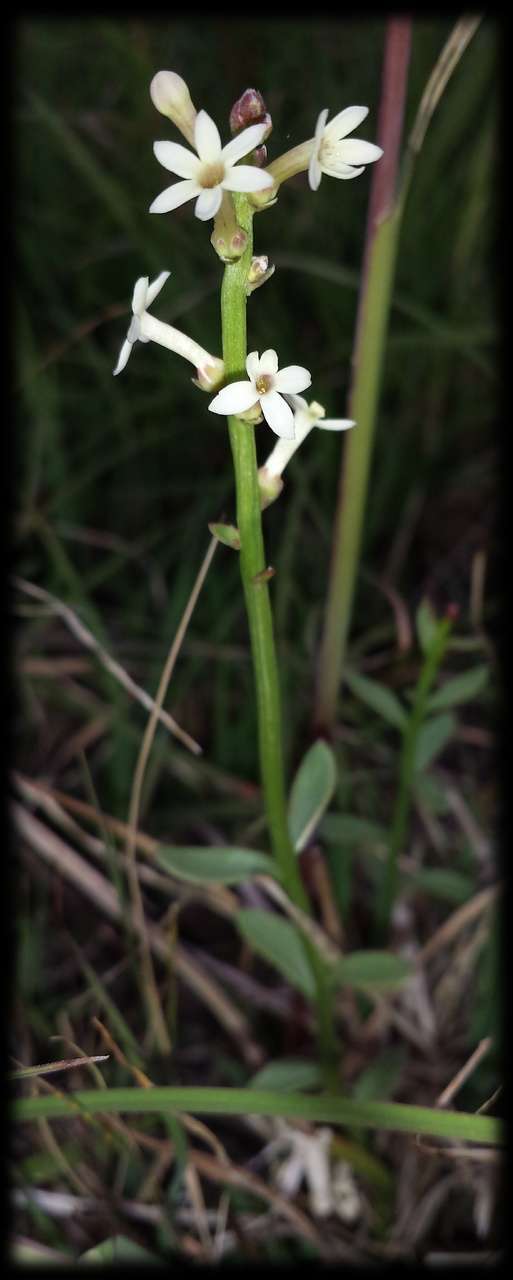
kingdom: Plantae
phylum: Tracheophyta
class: Magnoliopsida
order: Celastrales
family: Celastraceae
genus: Stackhousia
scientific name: Stackhousia subterranea
